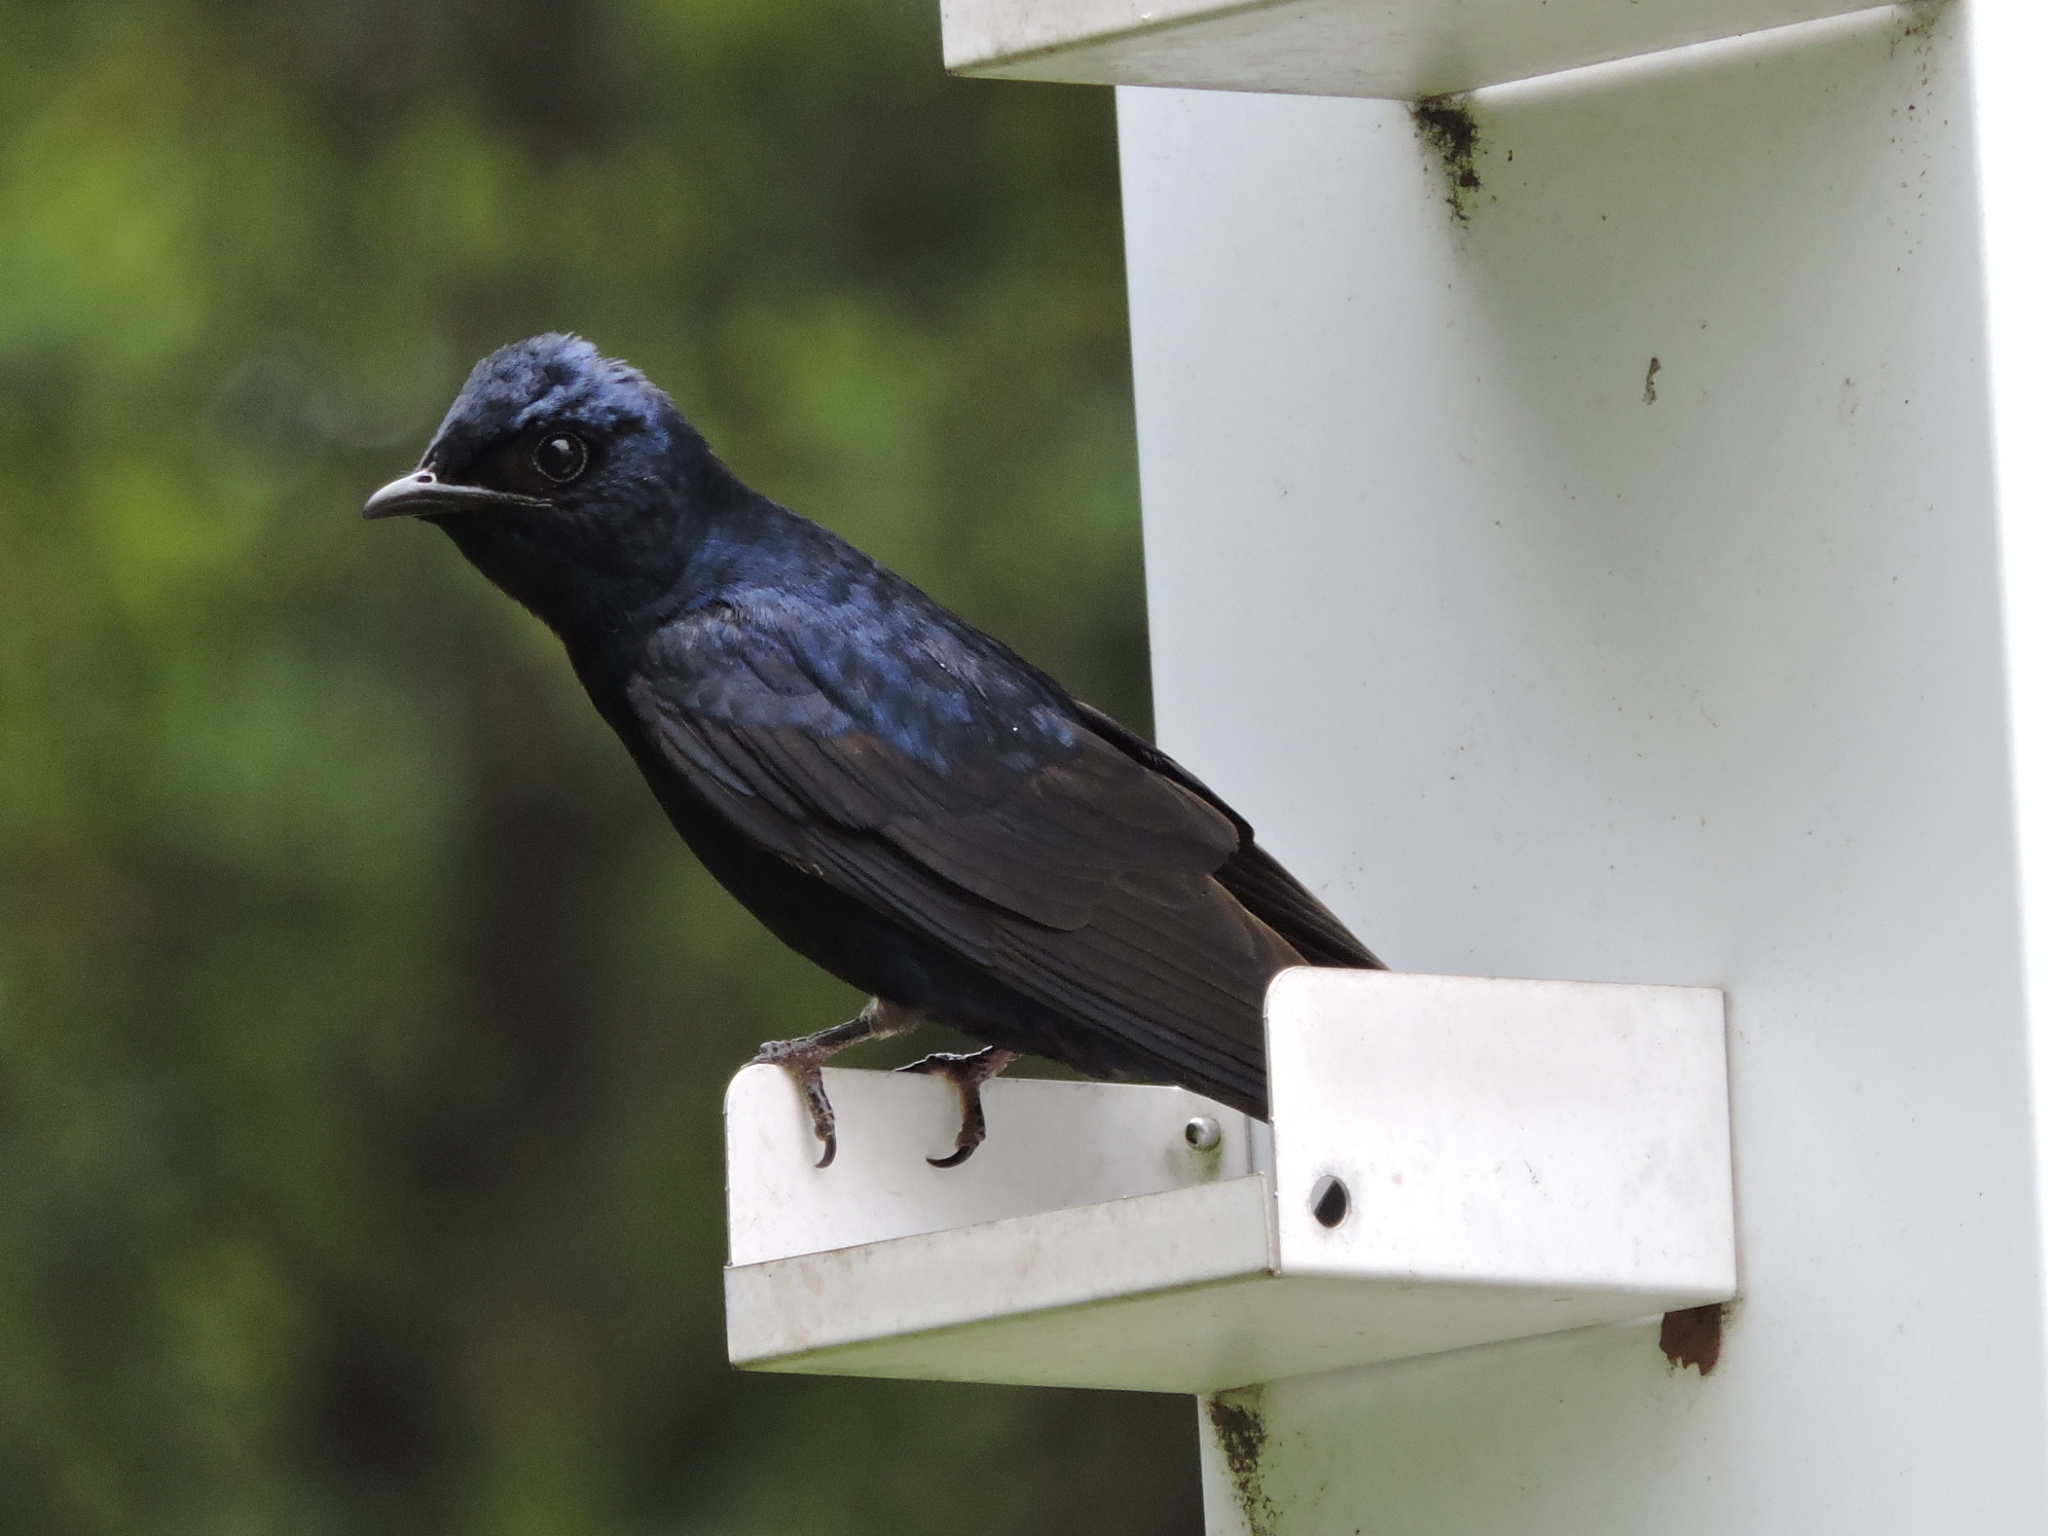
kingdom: Animalia
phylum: Chordata
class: Aves
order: Passeriformes
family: Hirundinidae
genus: Progne
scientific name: Progne subis
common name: Purple martin
